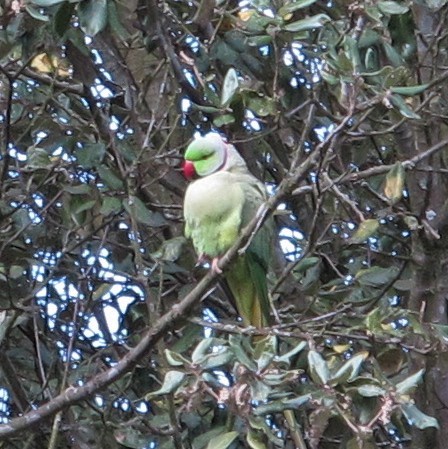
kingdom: Animalia
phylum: Chordata
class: Aves
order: Psittaciformes
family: Psittacidae
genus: Psittacula
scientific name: Psittacula krameri
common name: Rose-ringed parakeet
